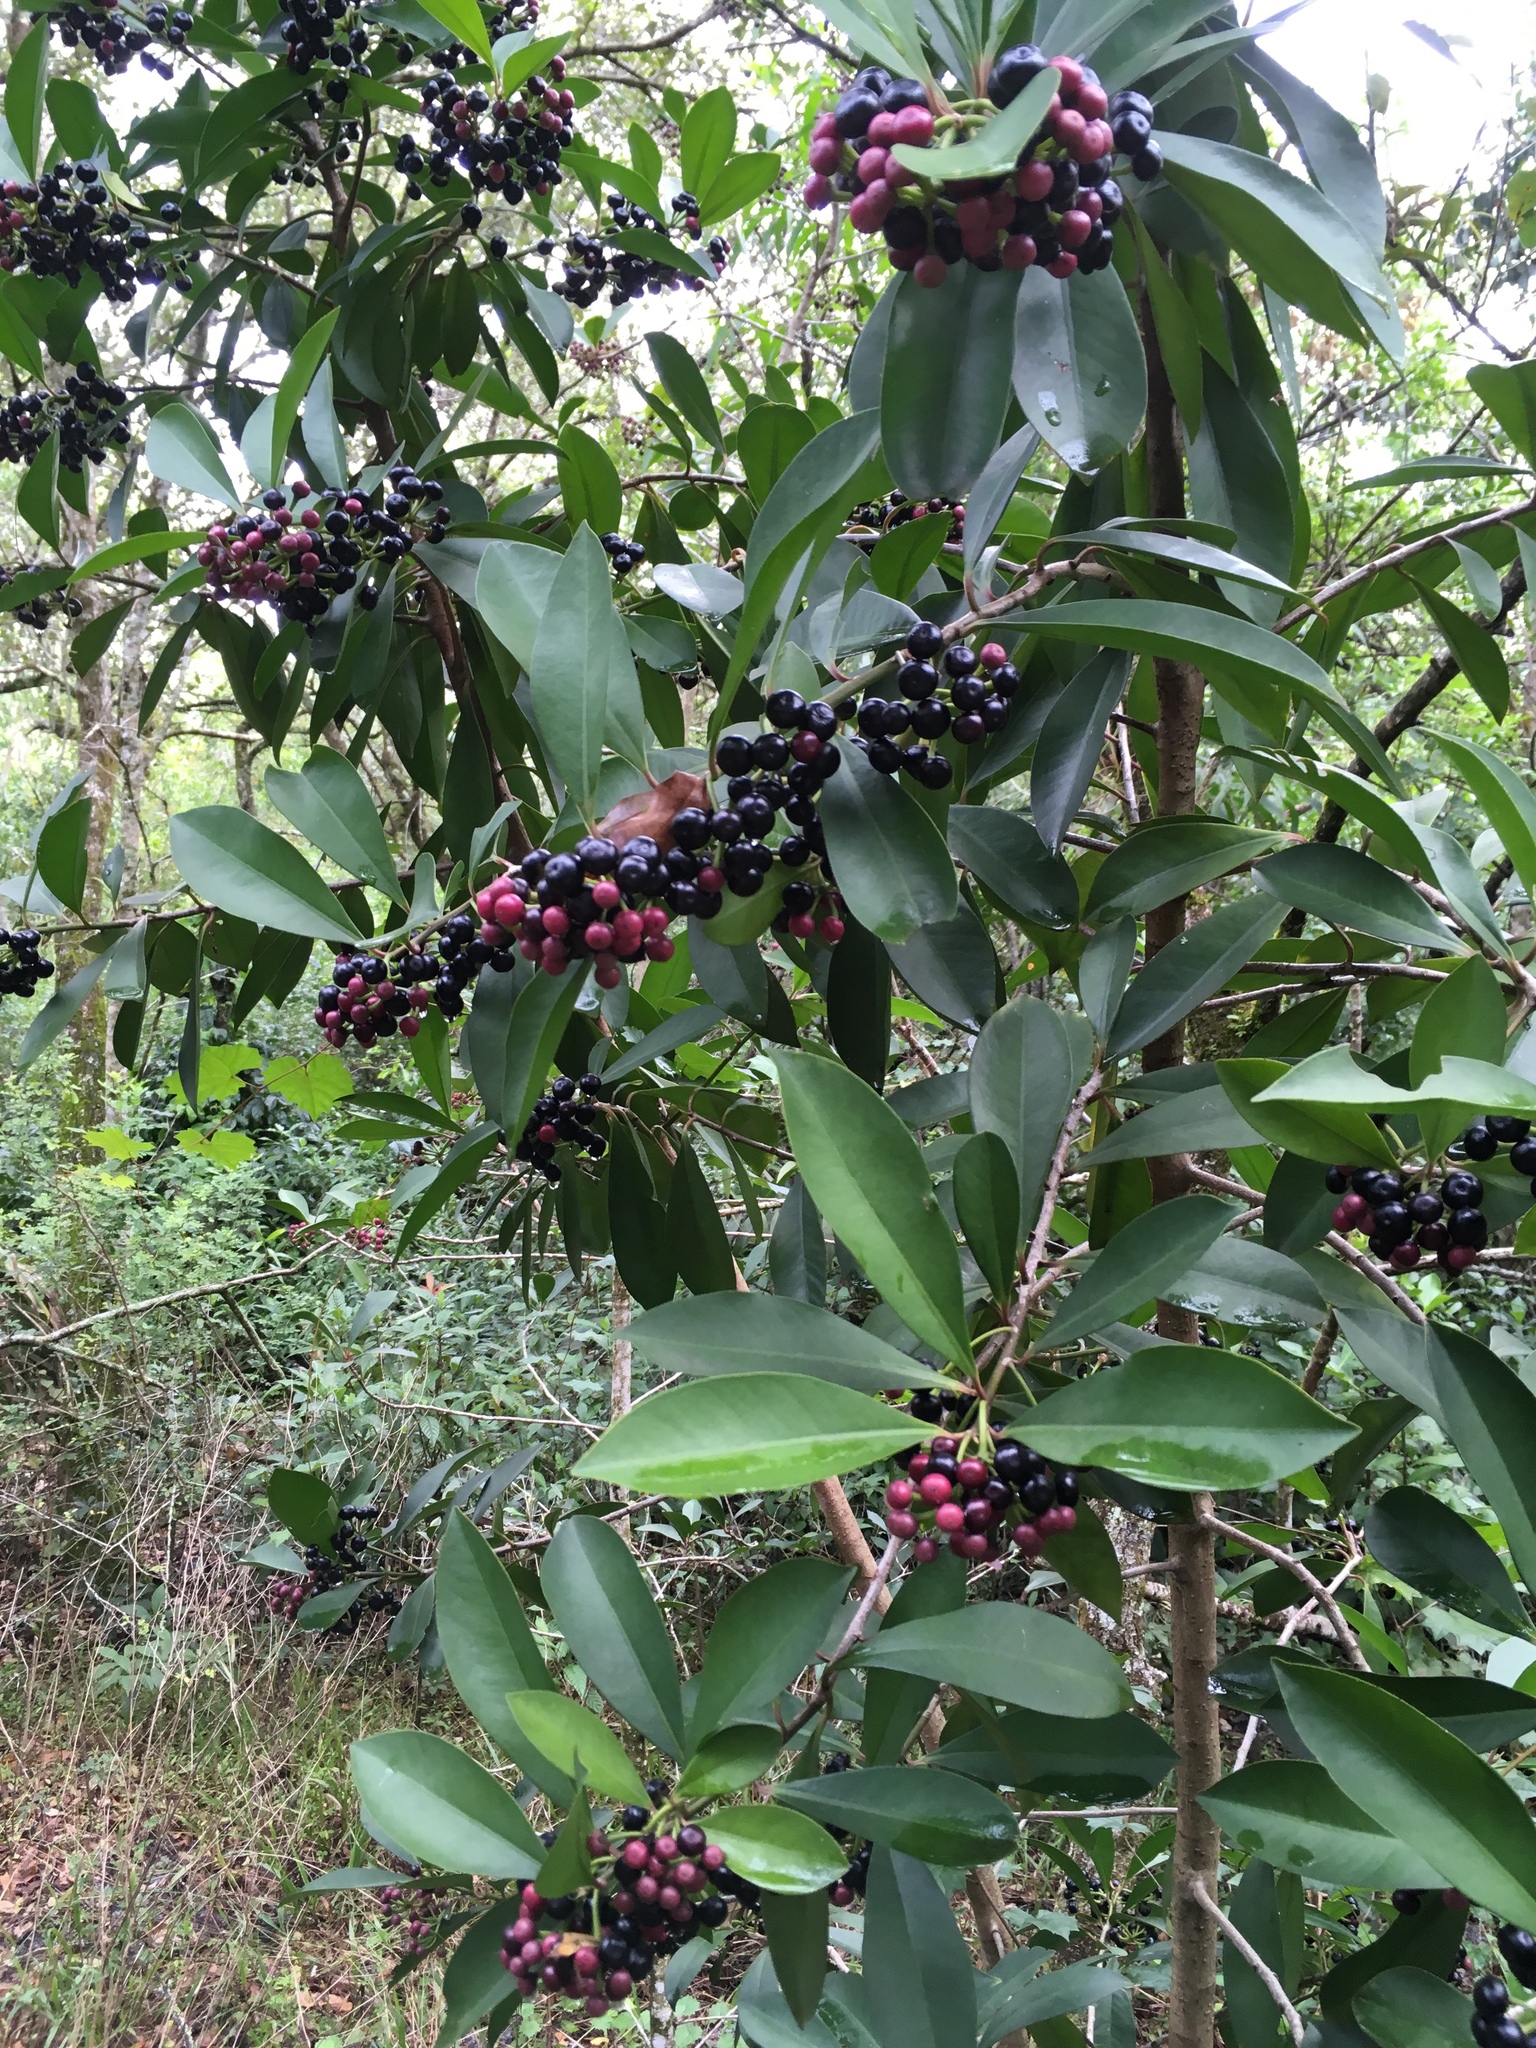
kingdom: Plantae
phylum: Tracheophyta
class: Magnoliopsida
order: Ericales
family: Primulaceae
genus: Ardisia
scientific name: Ardisia elliptica
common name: Shoebutton
